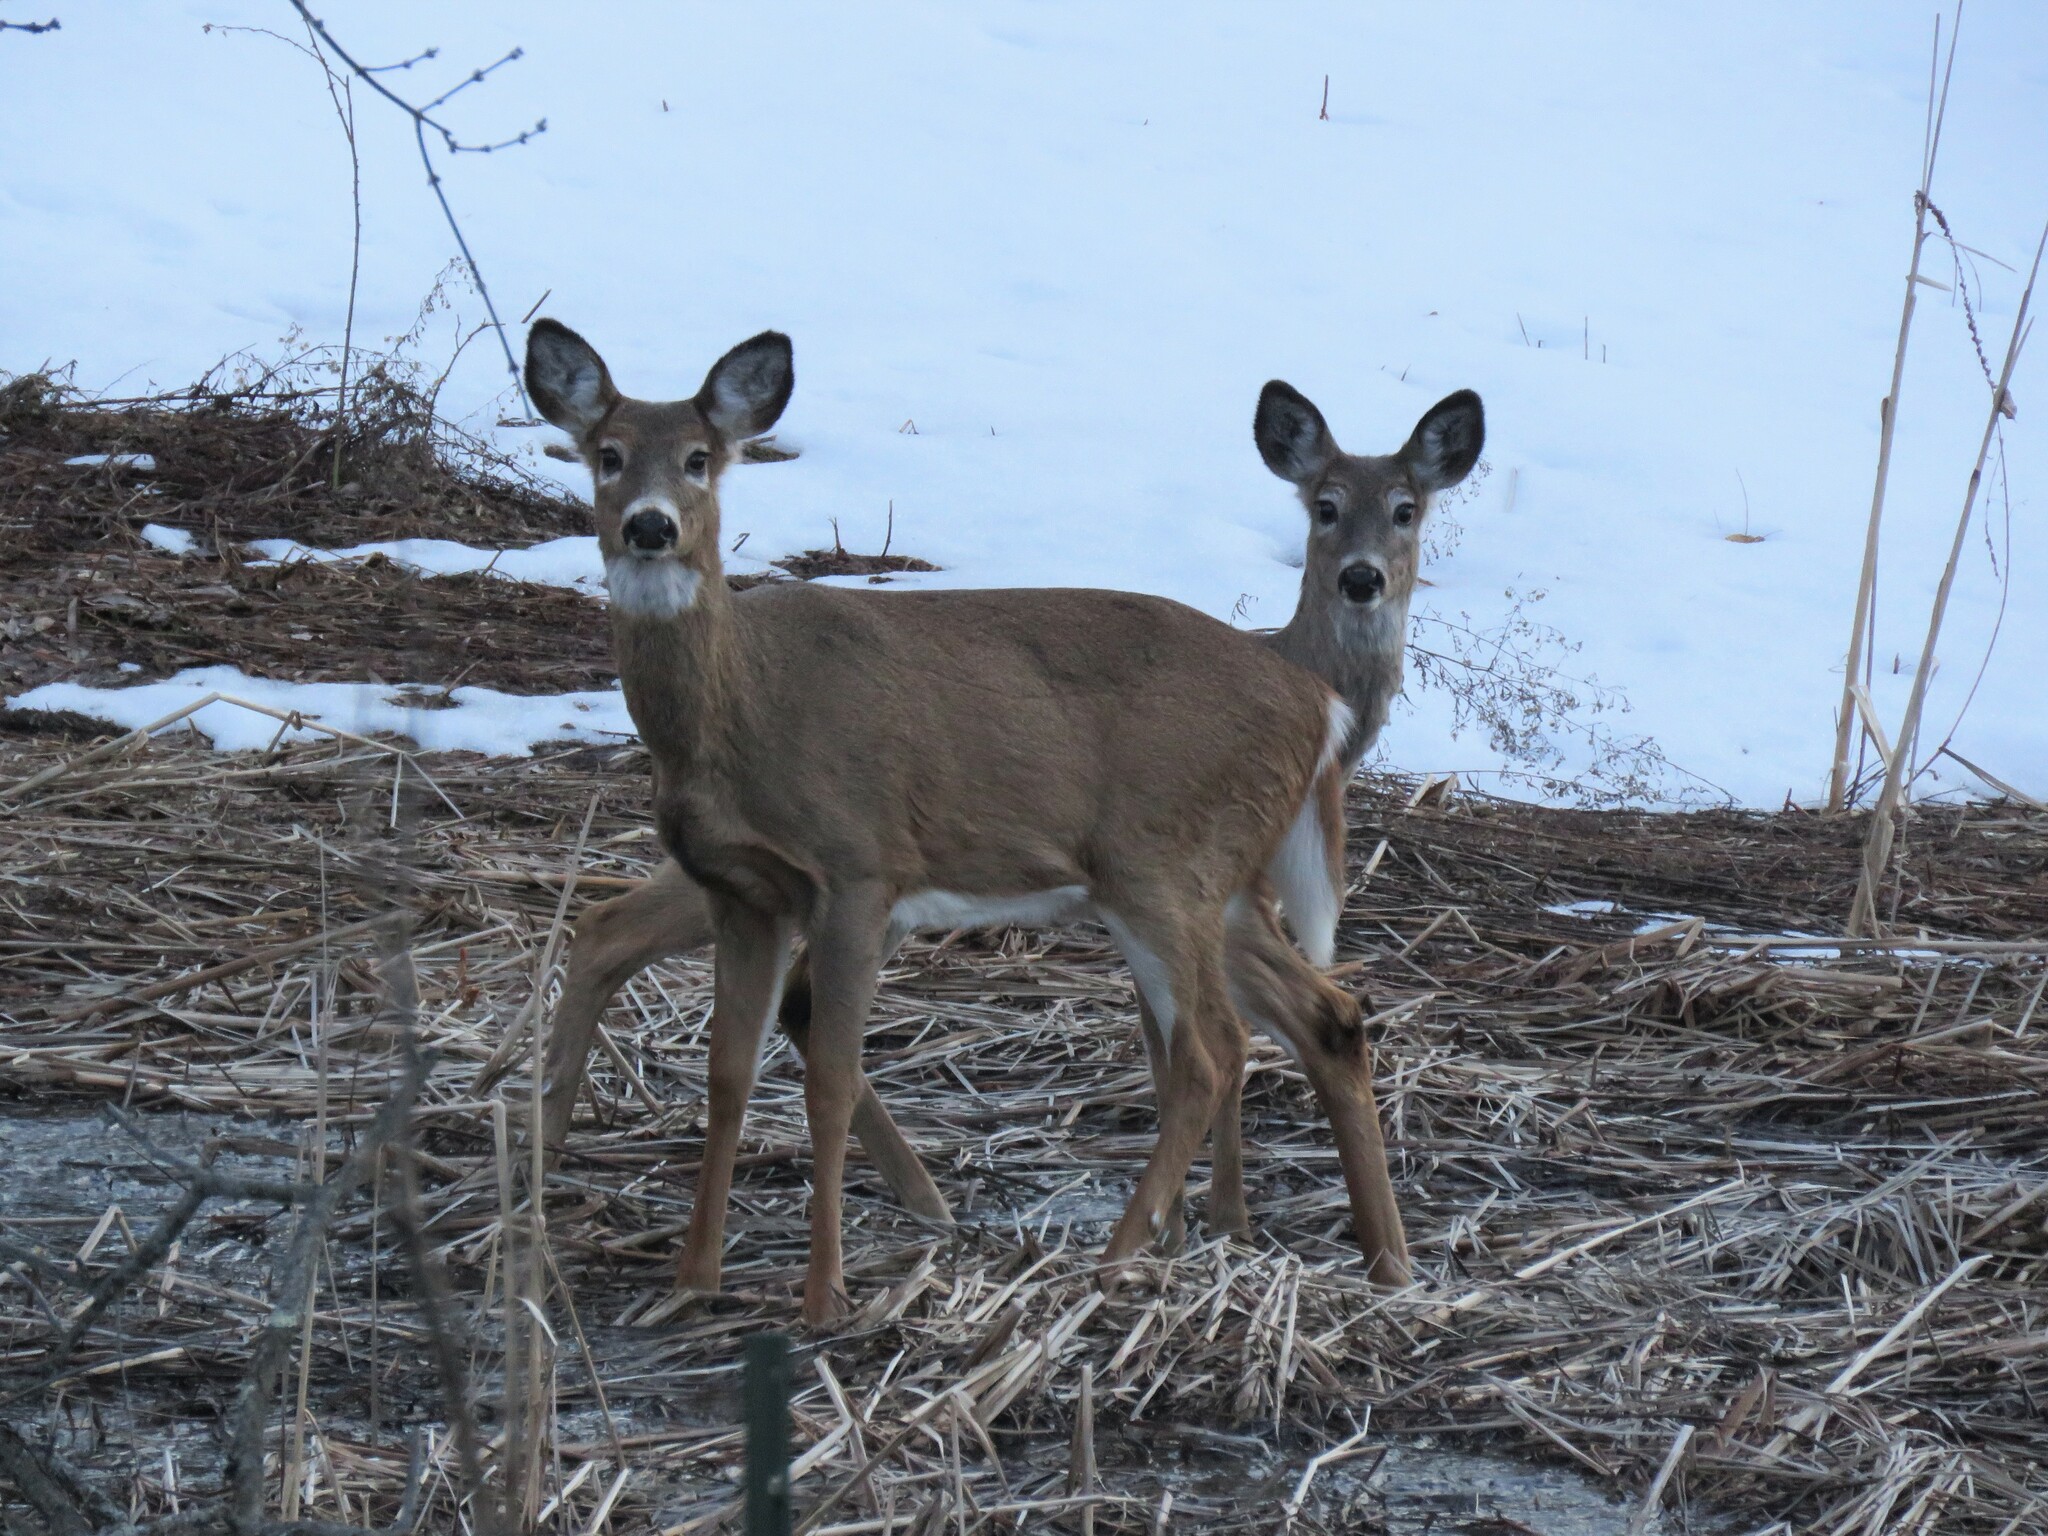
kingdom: Animalia
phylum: Chordata
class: Mammalia
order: Artiodactyla
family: Cervidae
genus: Odocoileus
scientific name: Odocoileus virginianus
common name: White-tailed deer
